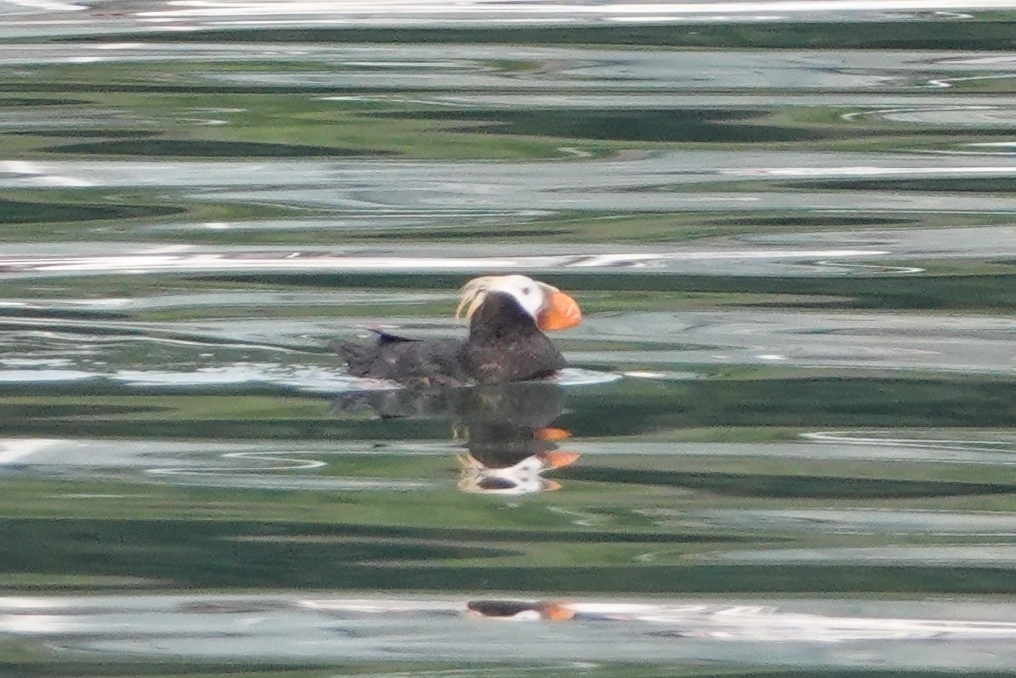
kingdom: Animalia
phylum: Chordata
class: Aves
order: Charadriiformes
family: Alcidae
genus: Fratercula
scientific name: Fratercula cirrhata
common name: Tufted puffin
